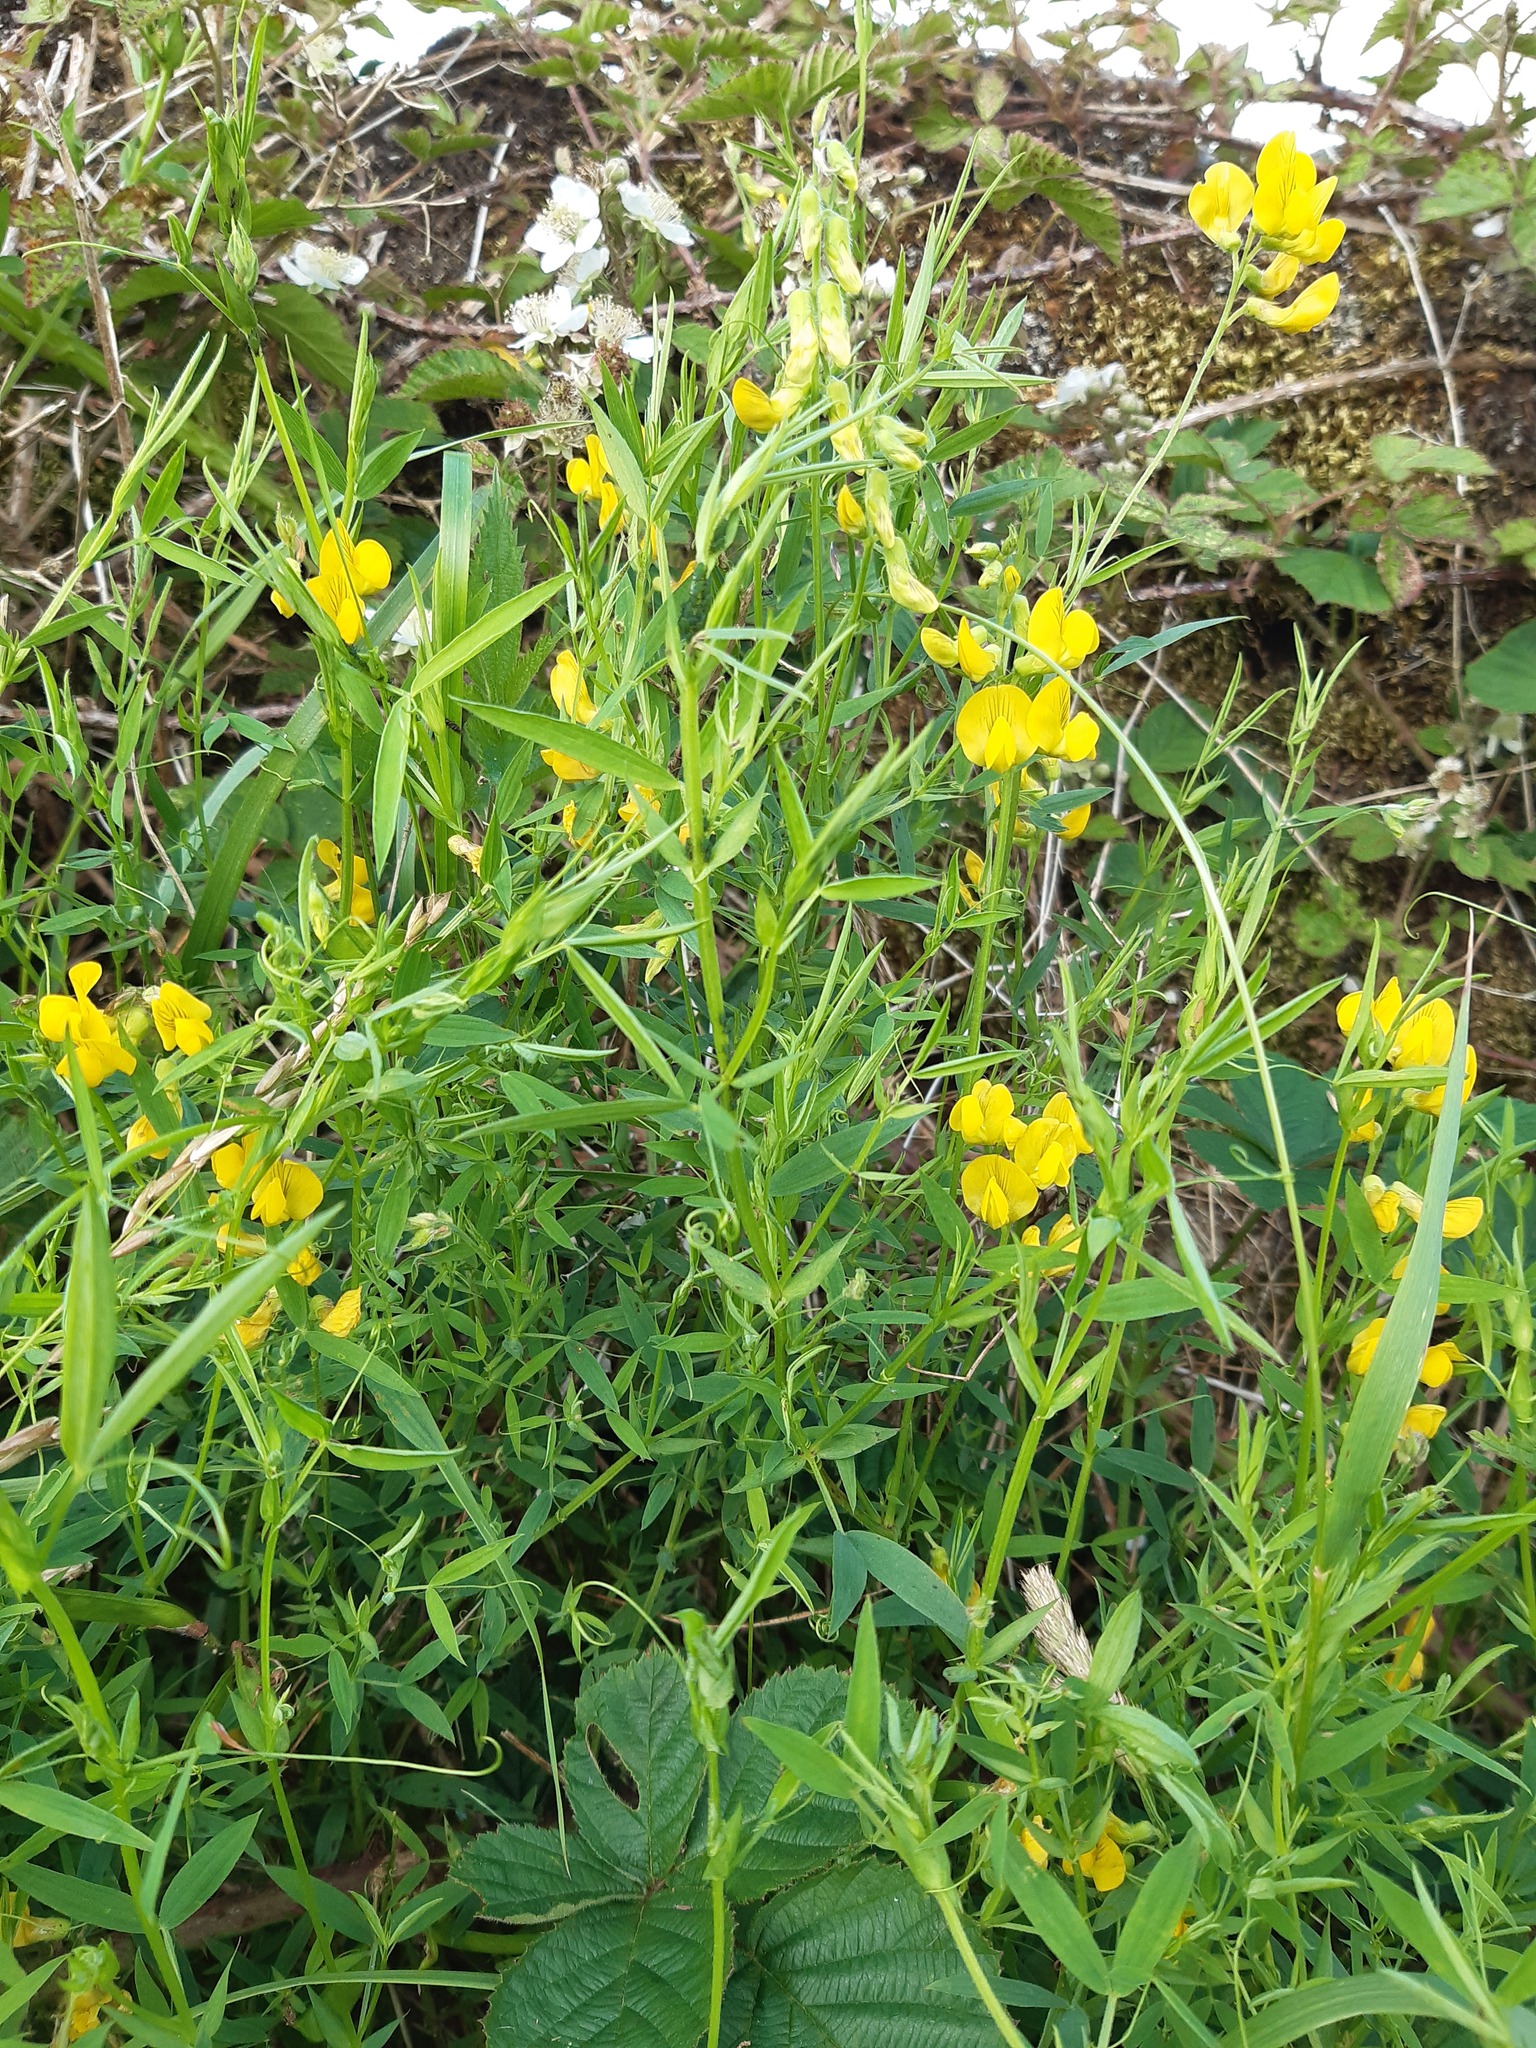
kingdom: Plantae
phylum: Tracheophyta
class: Magnoliopsida
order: Fabales
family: Fabaceae
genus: Lathyrus
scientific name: Lathyrus pratensis
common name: Meadow vetchling
